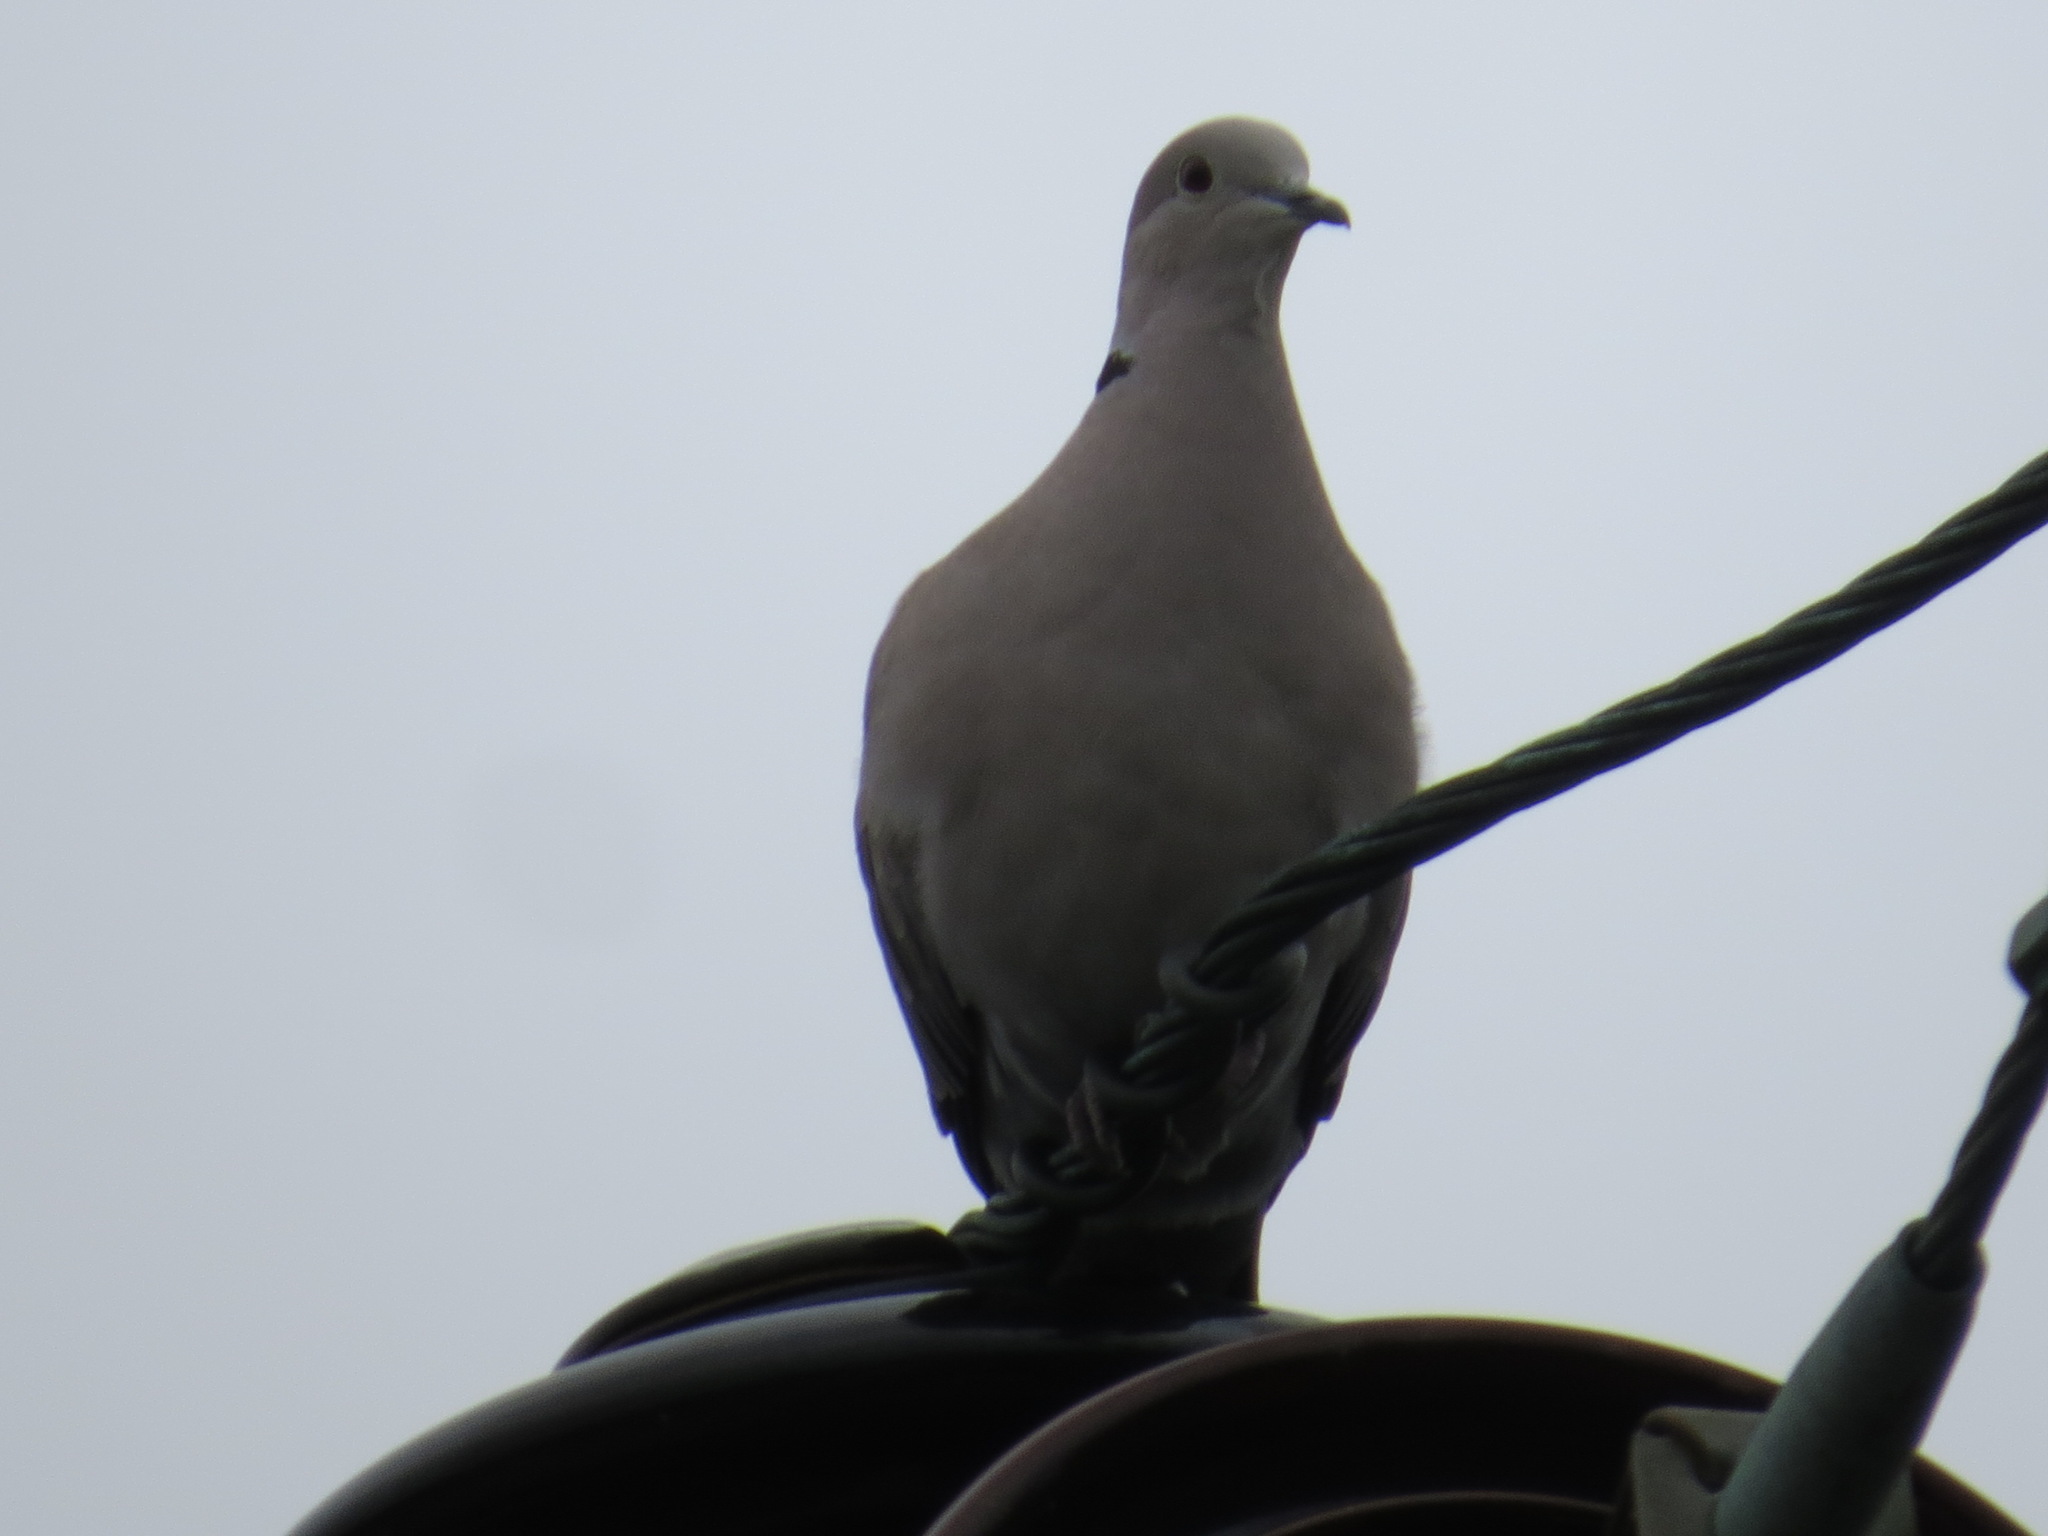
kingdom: Animalia
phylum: Chordata
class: Aves
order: Columbiformes
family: Columbidae
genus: Streptopelia
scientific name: Streptopelia decaocto
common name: Eurasian collared dove
